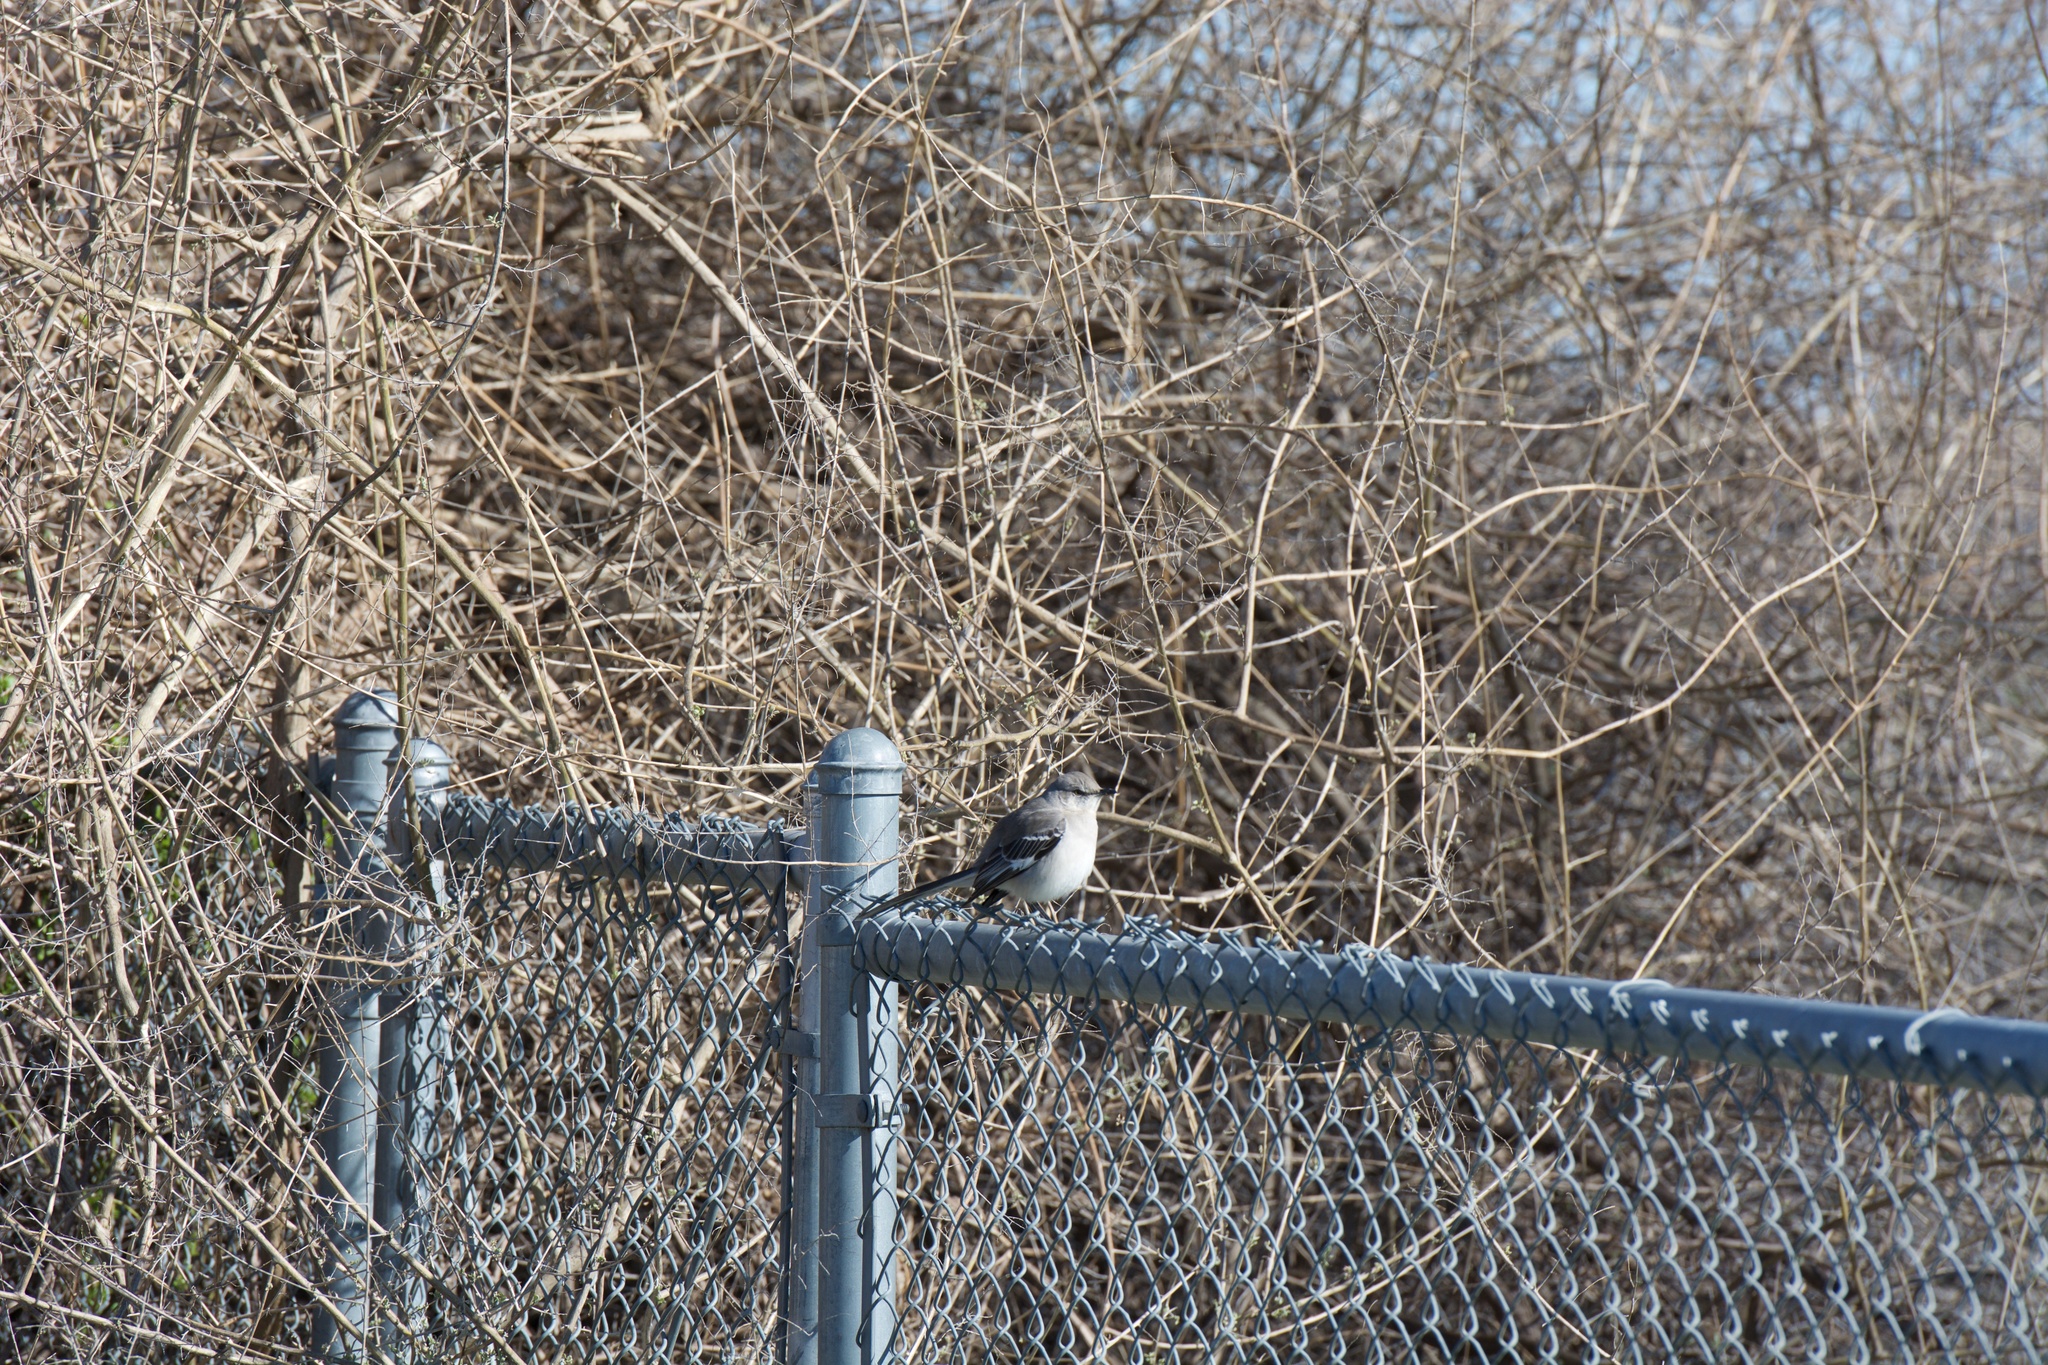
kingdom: Animalia
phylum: Chordata
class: Aves
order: Passeriformes
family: Mimidae
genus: Mimus
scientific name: Mimus polyglottos
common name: Northern mockingbird
